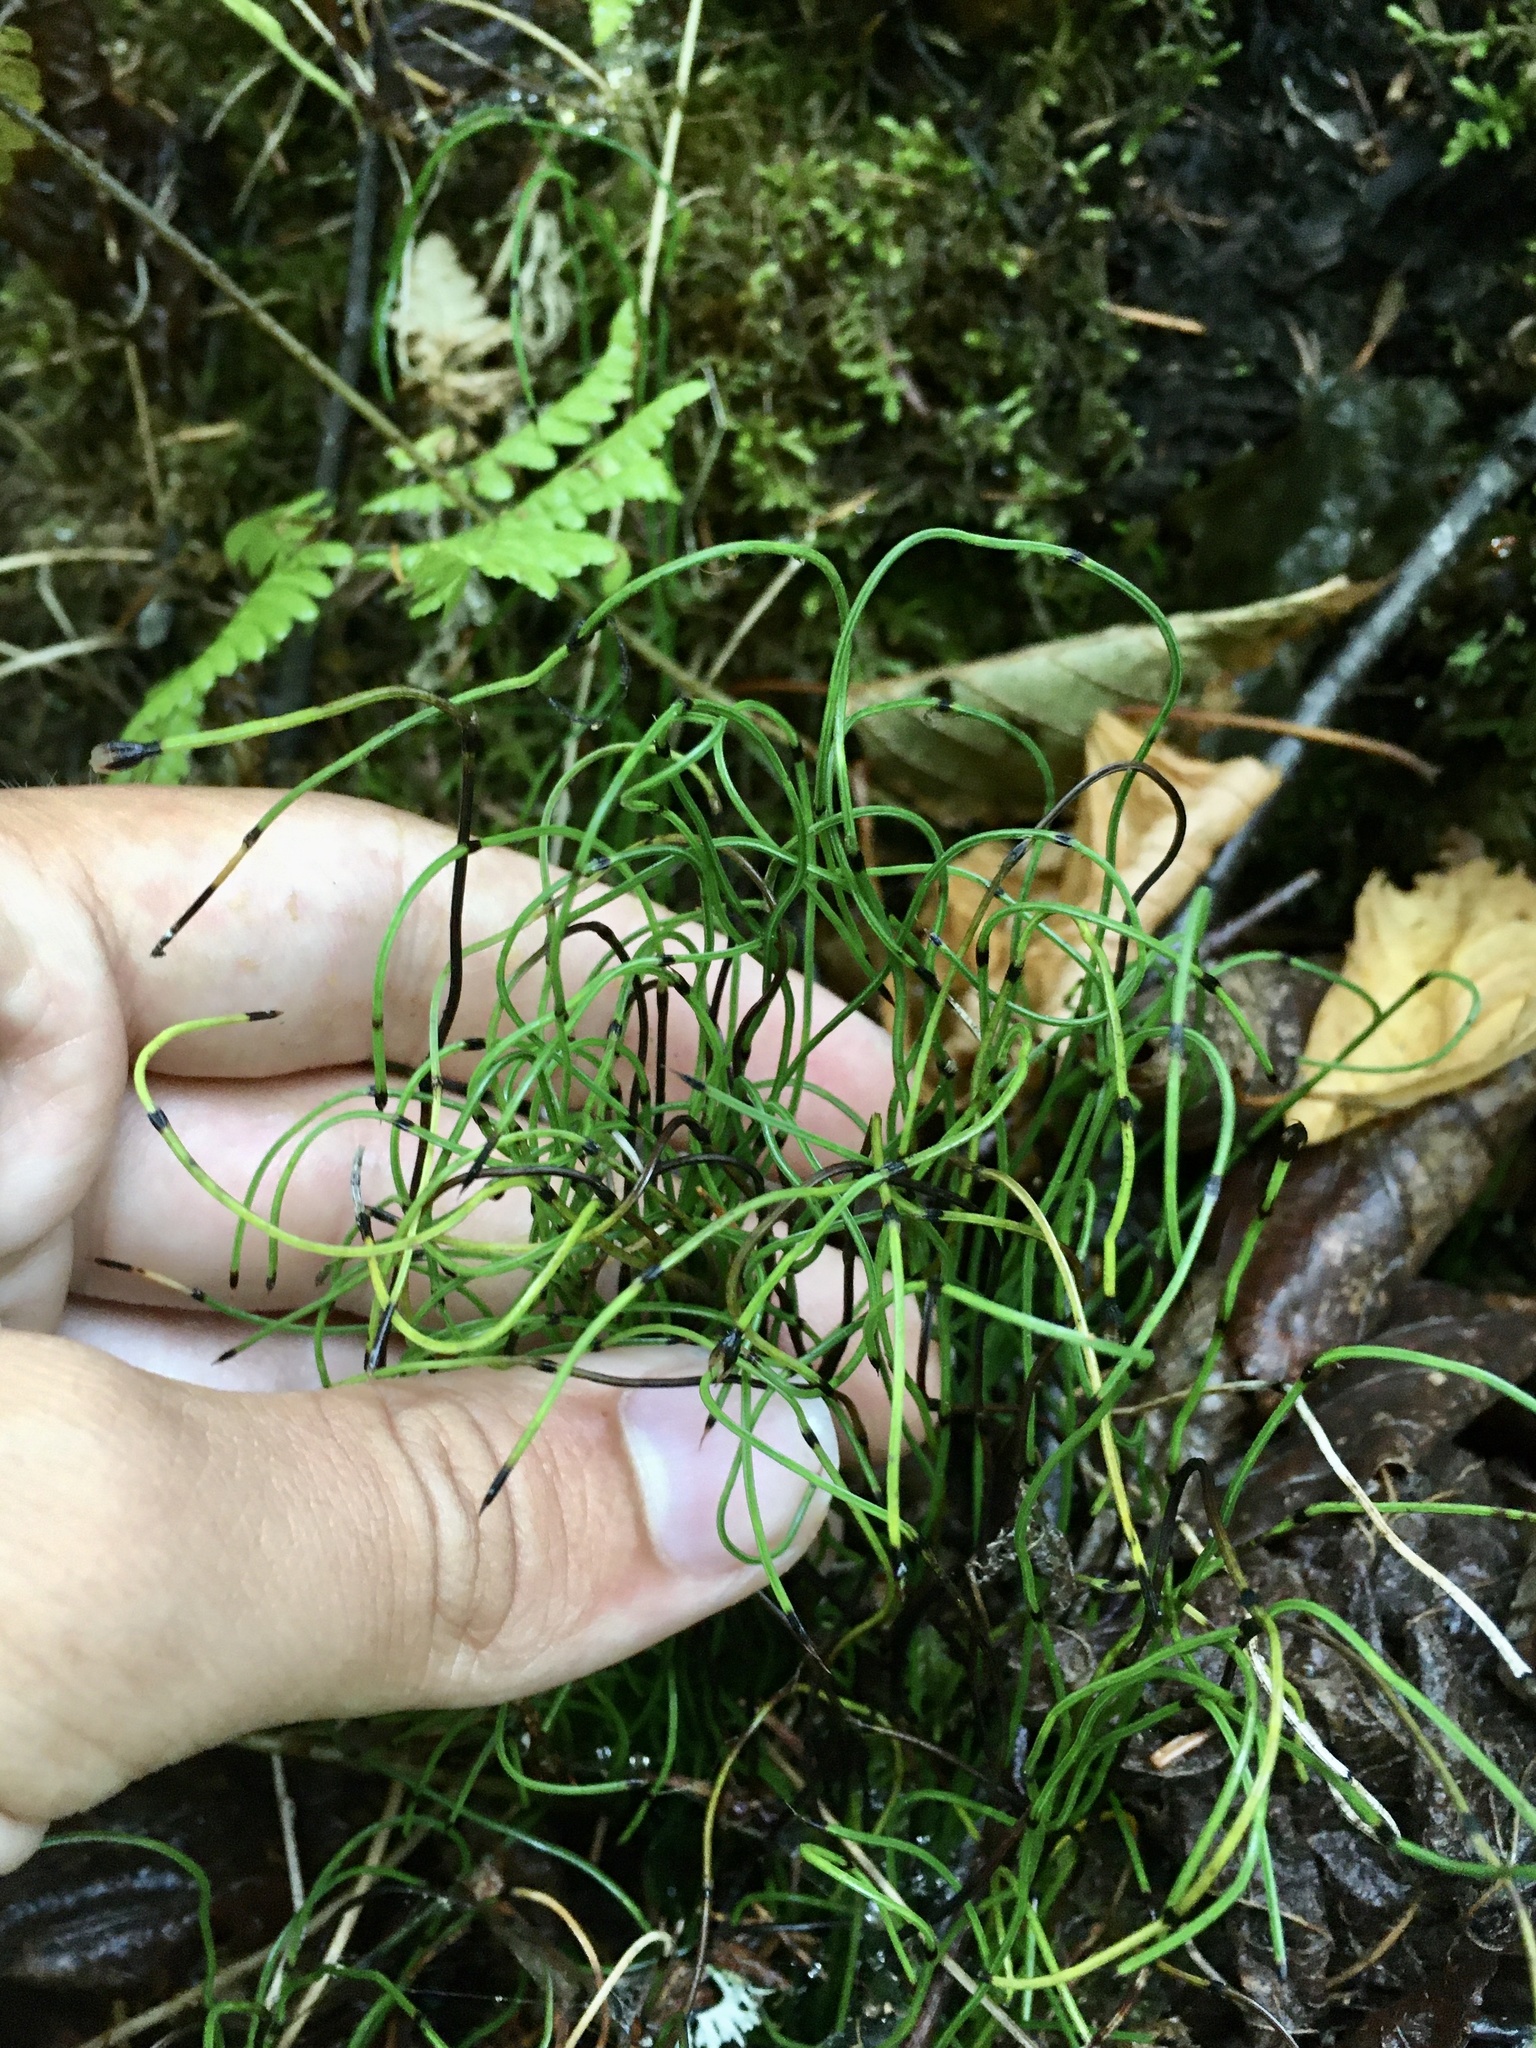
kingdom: Plantae
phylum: Tracheophyta
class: Polypodiopsida
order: Equisetales
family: Equisetaceae
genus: Equisetum
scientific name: Equisetum scirpoides
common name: Delicate horsetail
